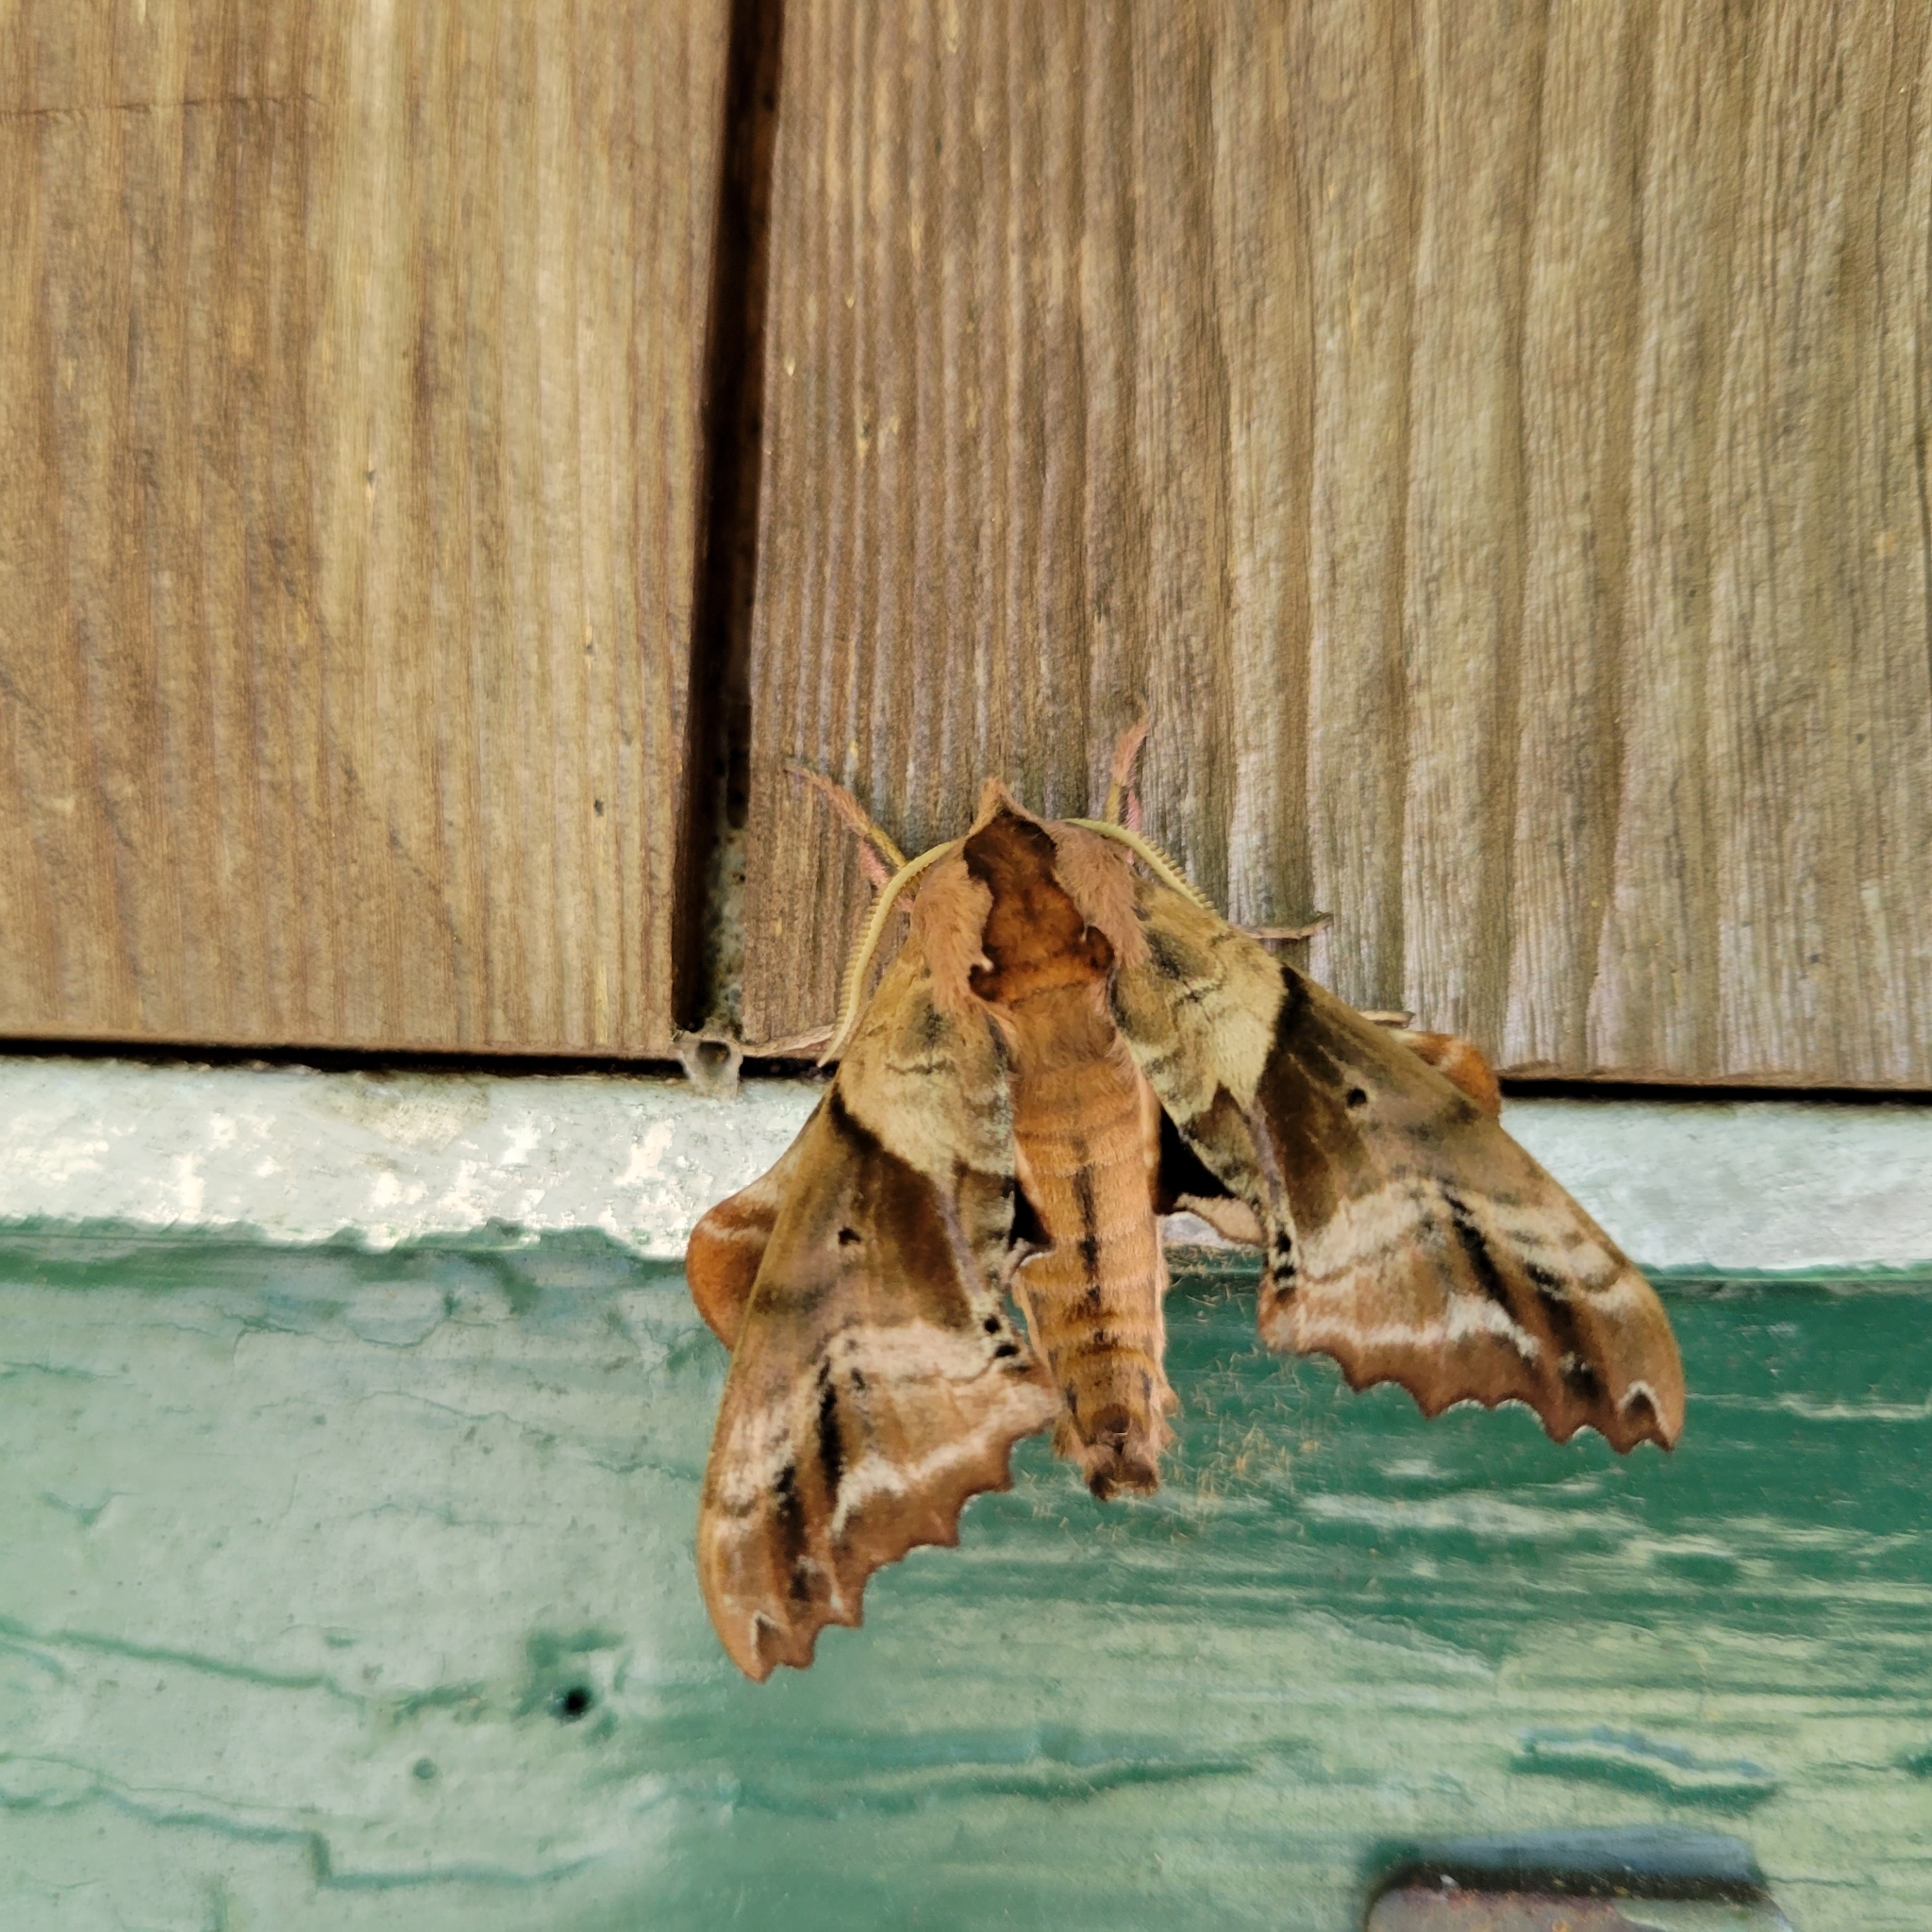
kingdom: Animalia
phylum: Arthropoda
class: Insecta
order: Lepidoptera
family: Sphingidae
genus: Paonias
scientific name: Paonias excaecata
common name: Blind-eyed sphinx
